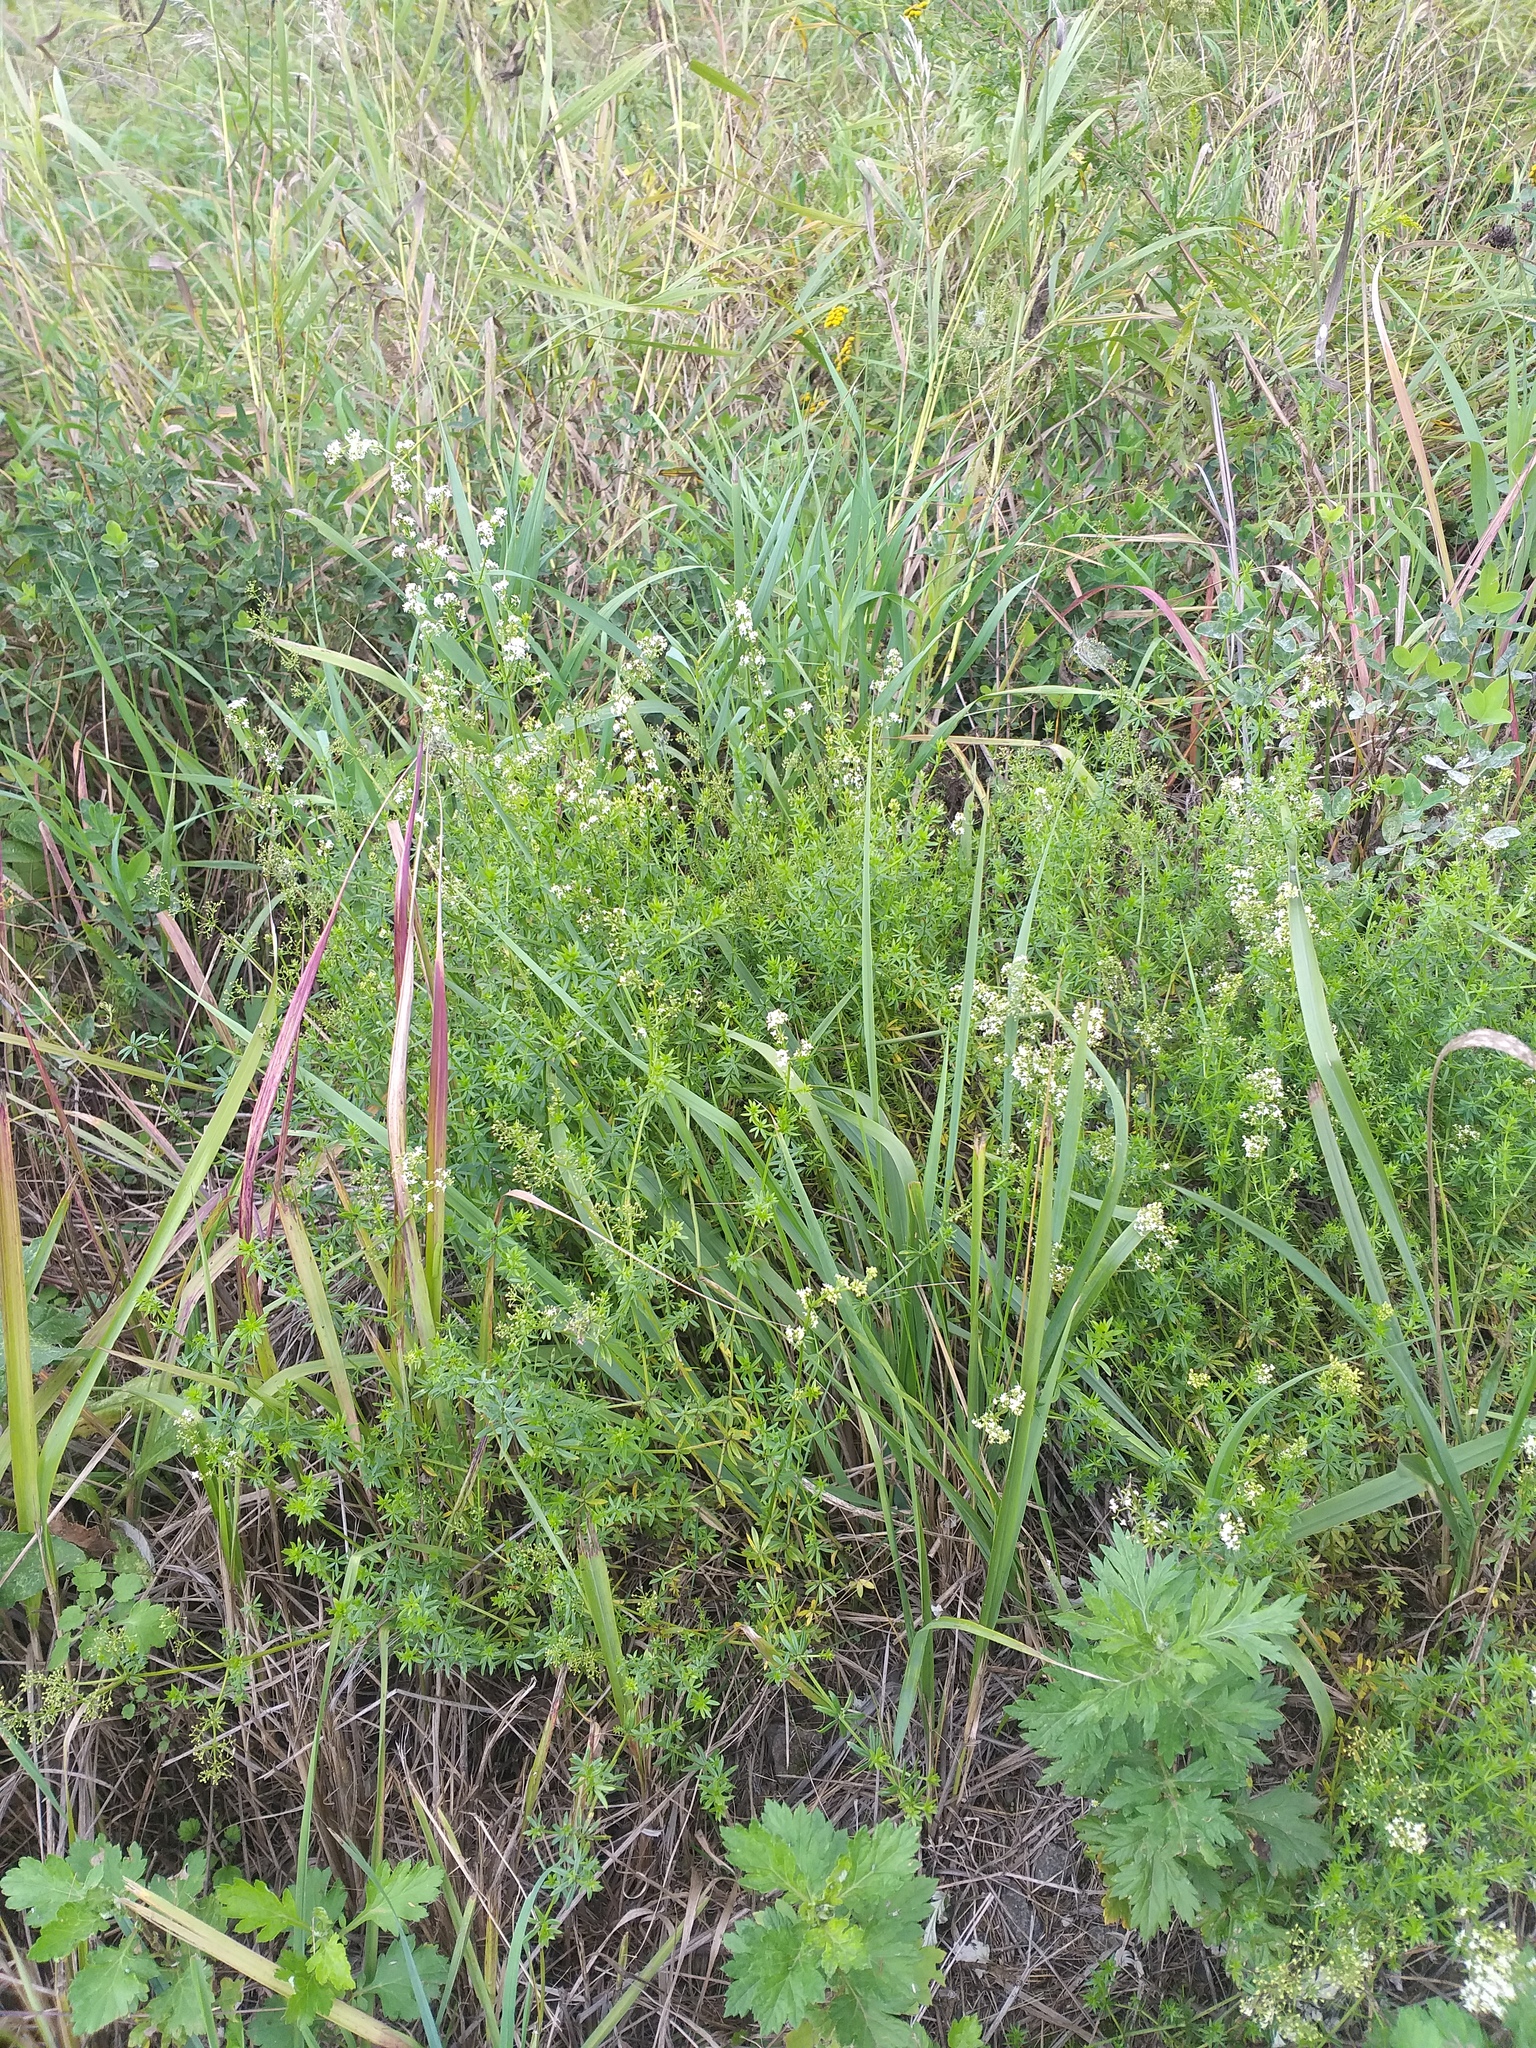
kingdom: Plantae
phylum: Tracheophyta
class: Magnoliopsida
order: Gentianales
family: Rubiaceae
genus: Galium
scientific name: Galium mollugo
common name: Hedge bedstraw
